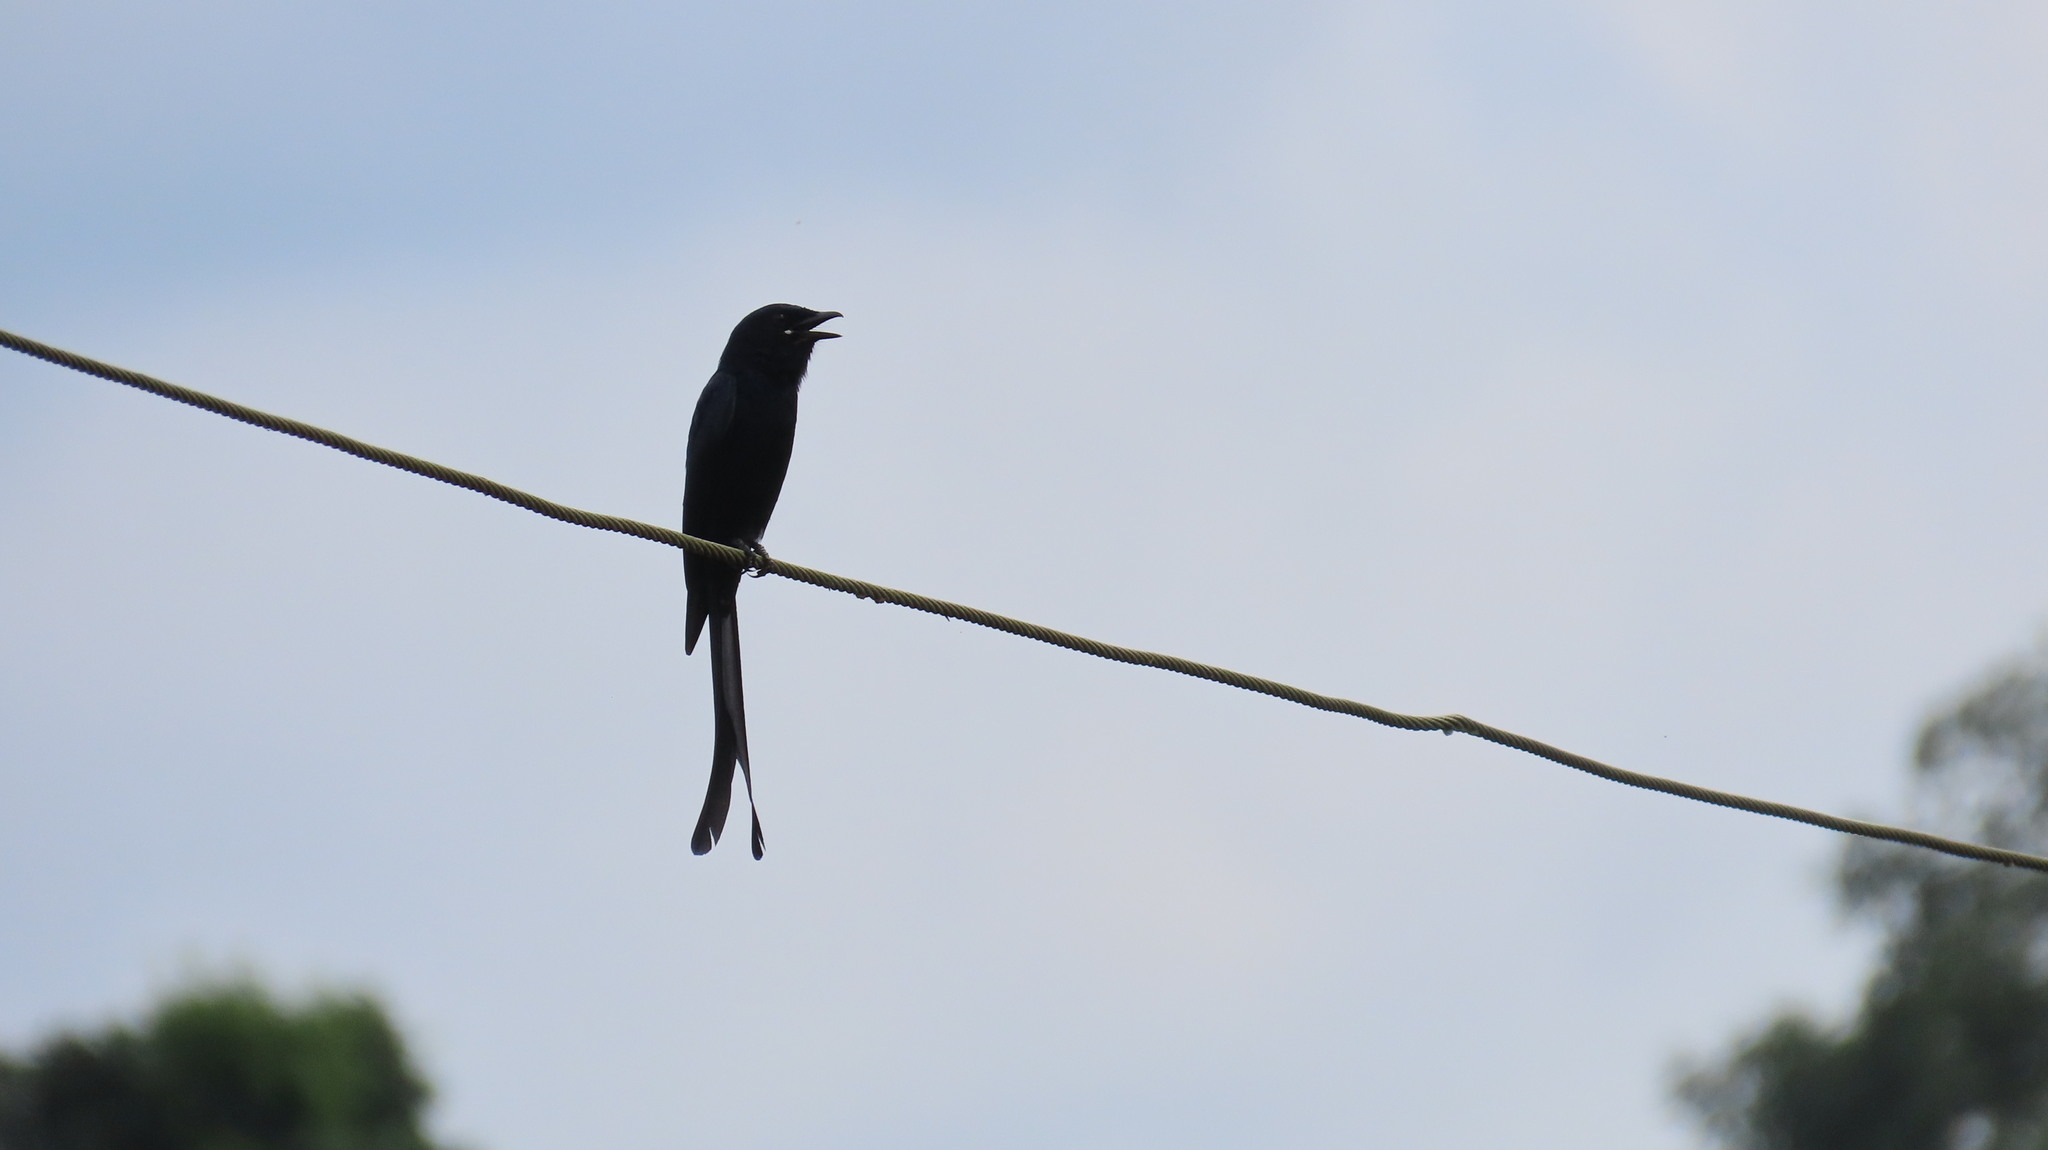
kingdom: Animalia
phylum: Chordata
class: Aves
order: Passeriformes
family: Dicruridae
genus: Dicrurus
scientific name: Dicrurus macrocercus
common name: Black drongo
